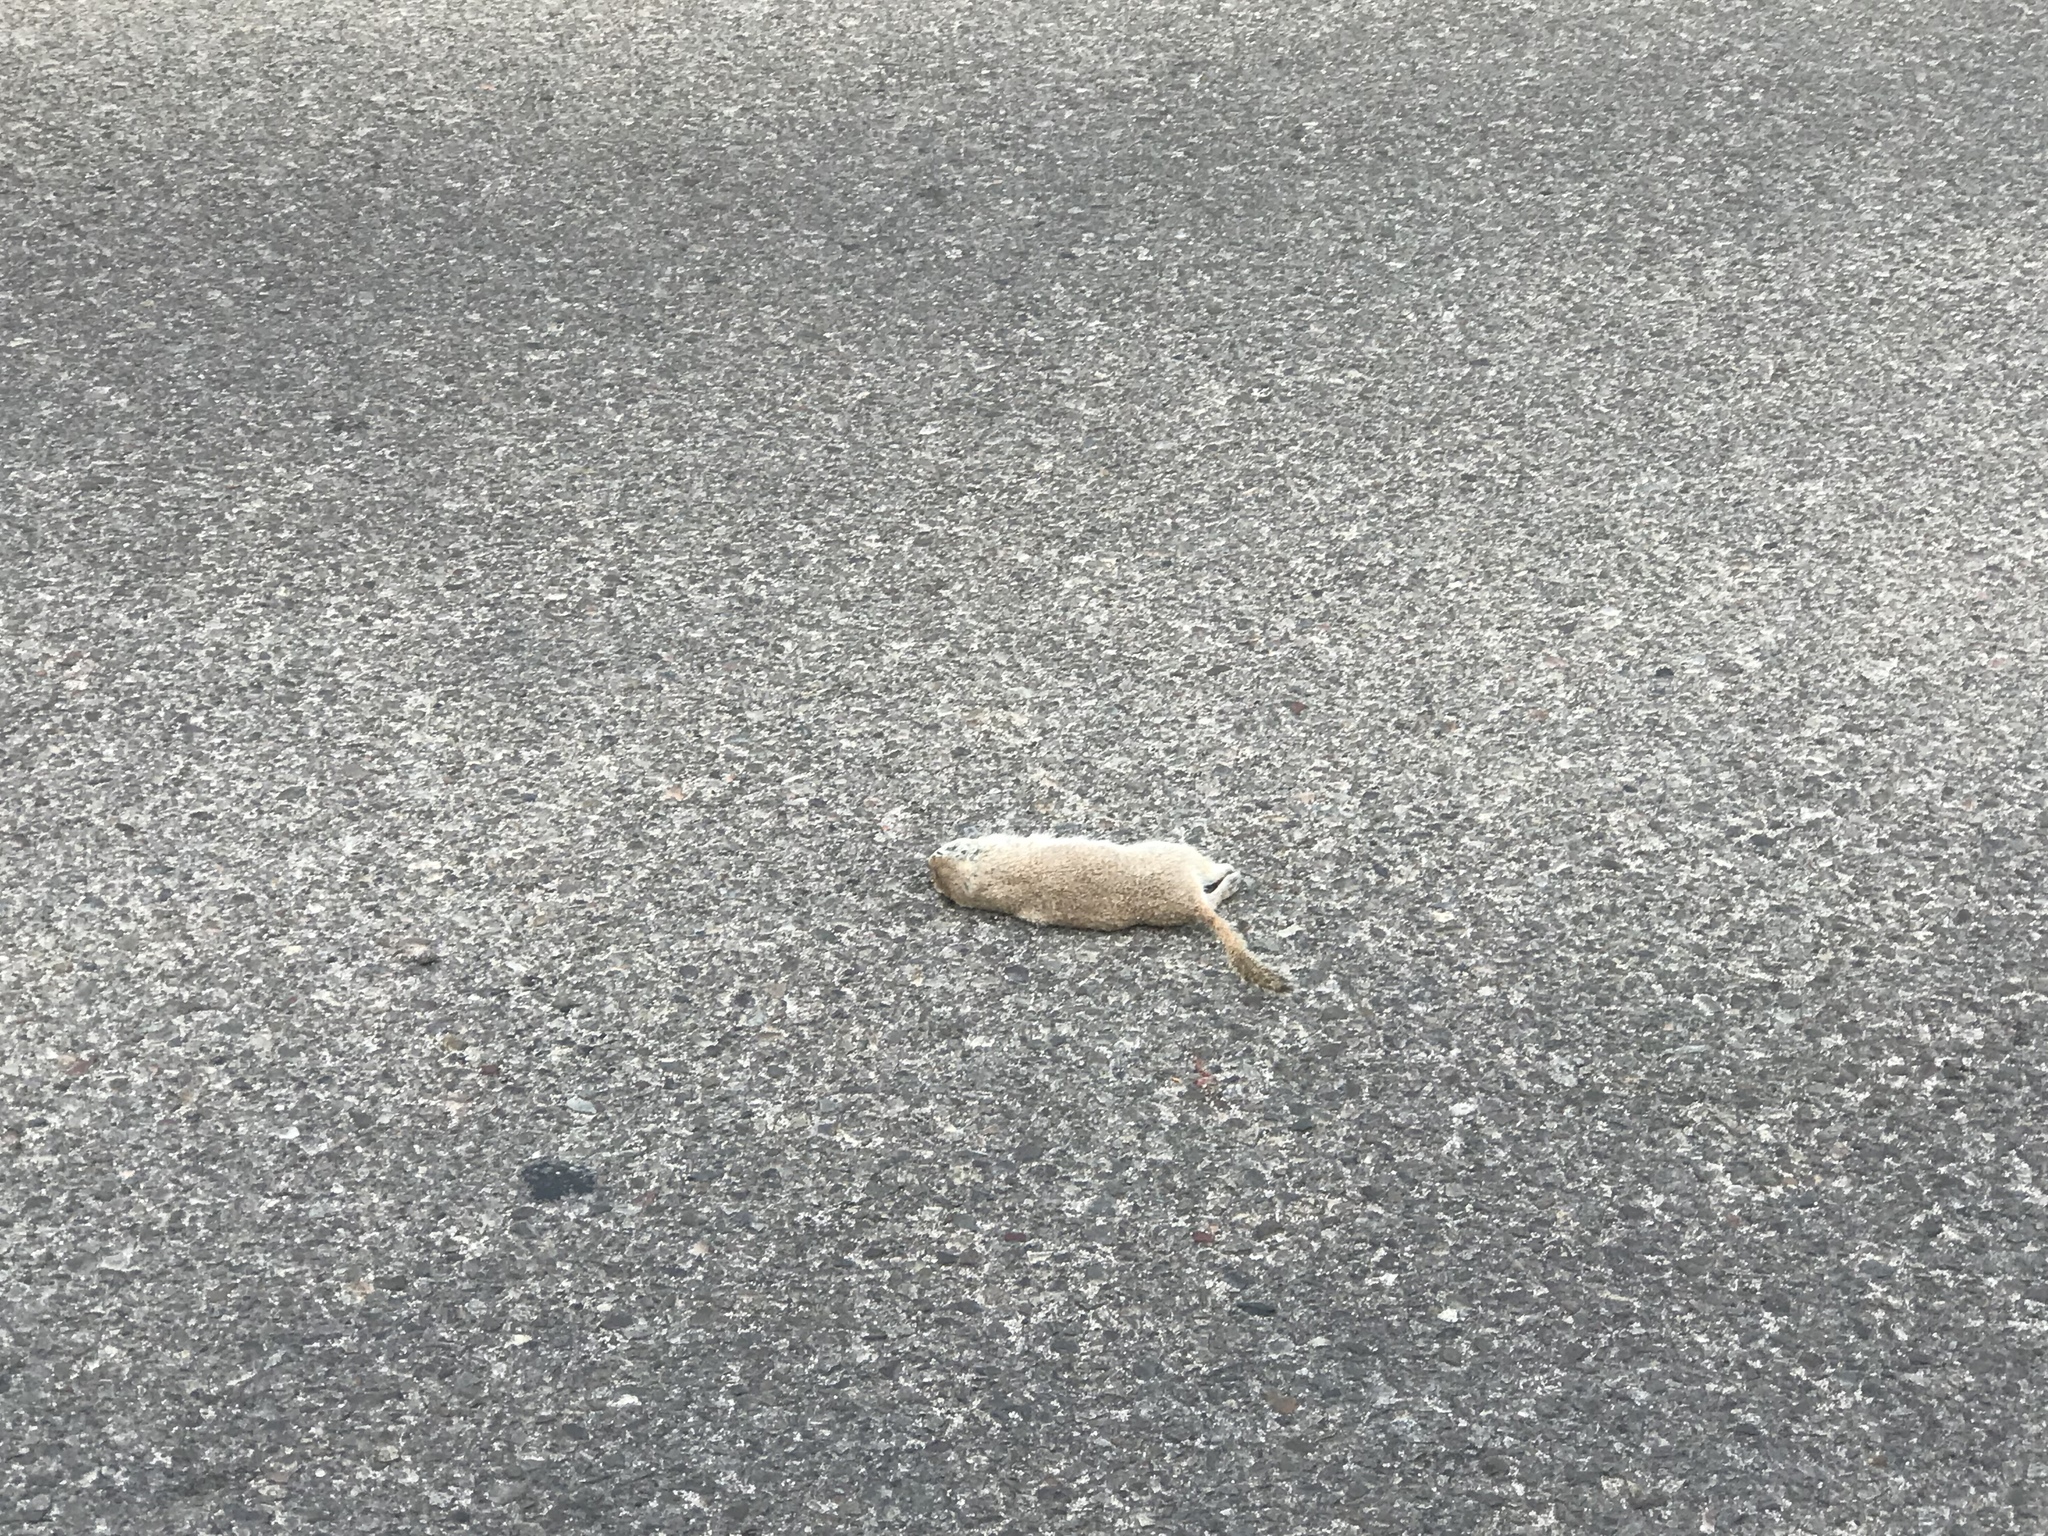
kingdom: Animalia
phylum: Chordata
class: Mammalia
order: Rodentia
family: Sciuridae
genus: Xerospermophilus
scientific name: Xerospermophilus tereticaudus
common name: Round-tailed ground squirrel
